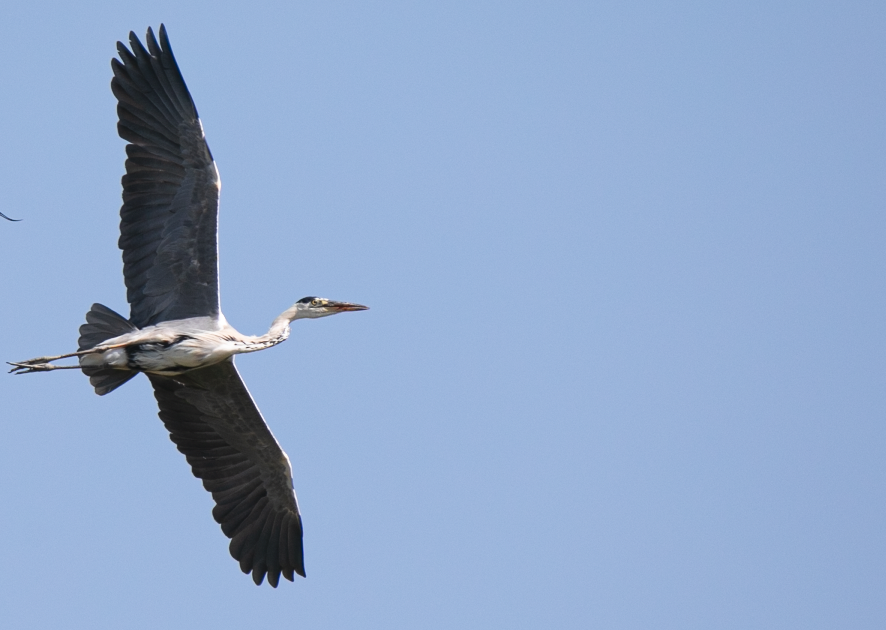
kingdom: Animalia
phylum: Chordata
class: Aves
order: Pelecaniformes
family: Ardeidae
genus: Ardea
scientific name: Ardea cinerea
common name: Grey heron
